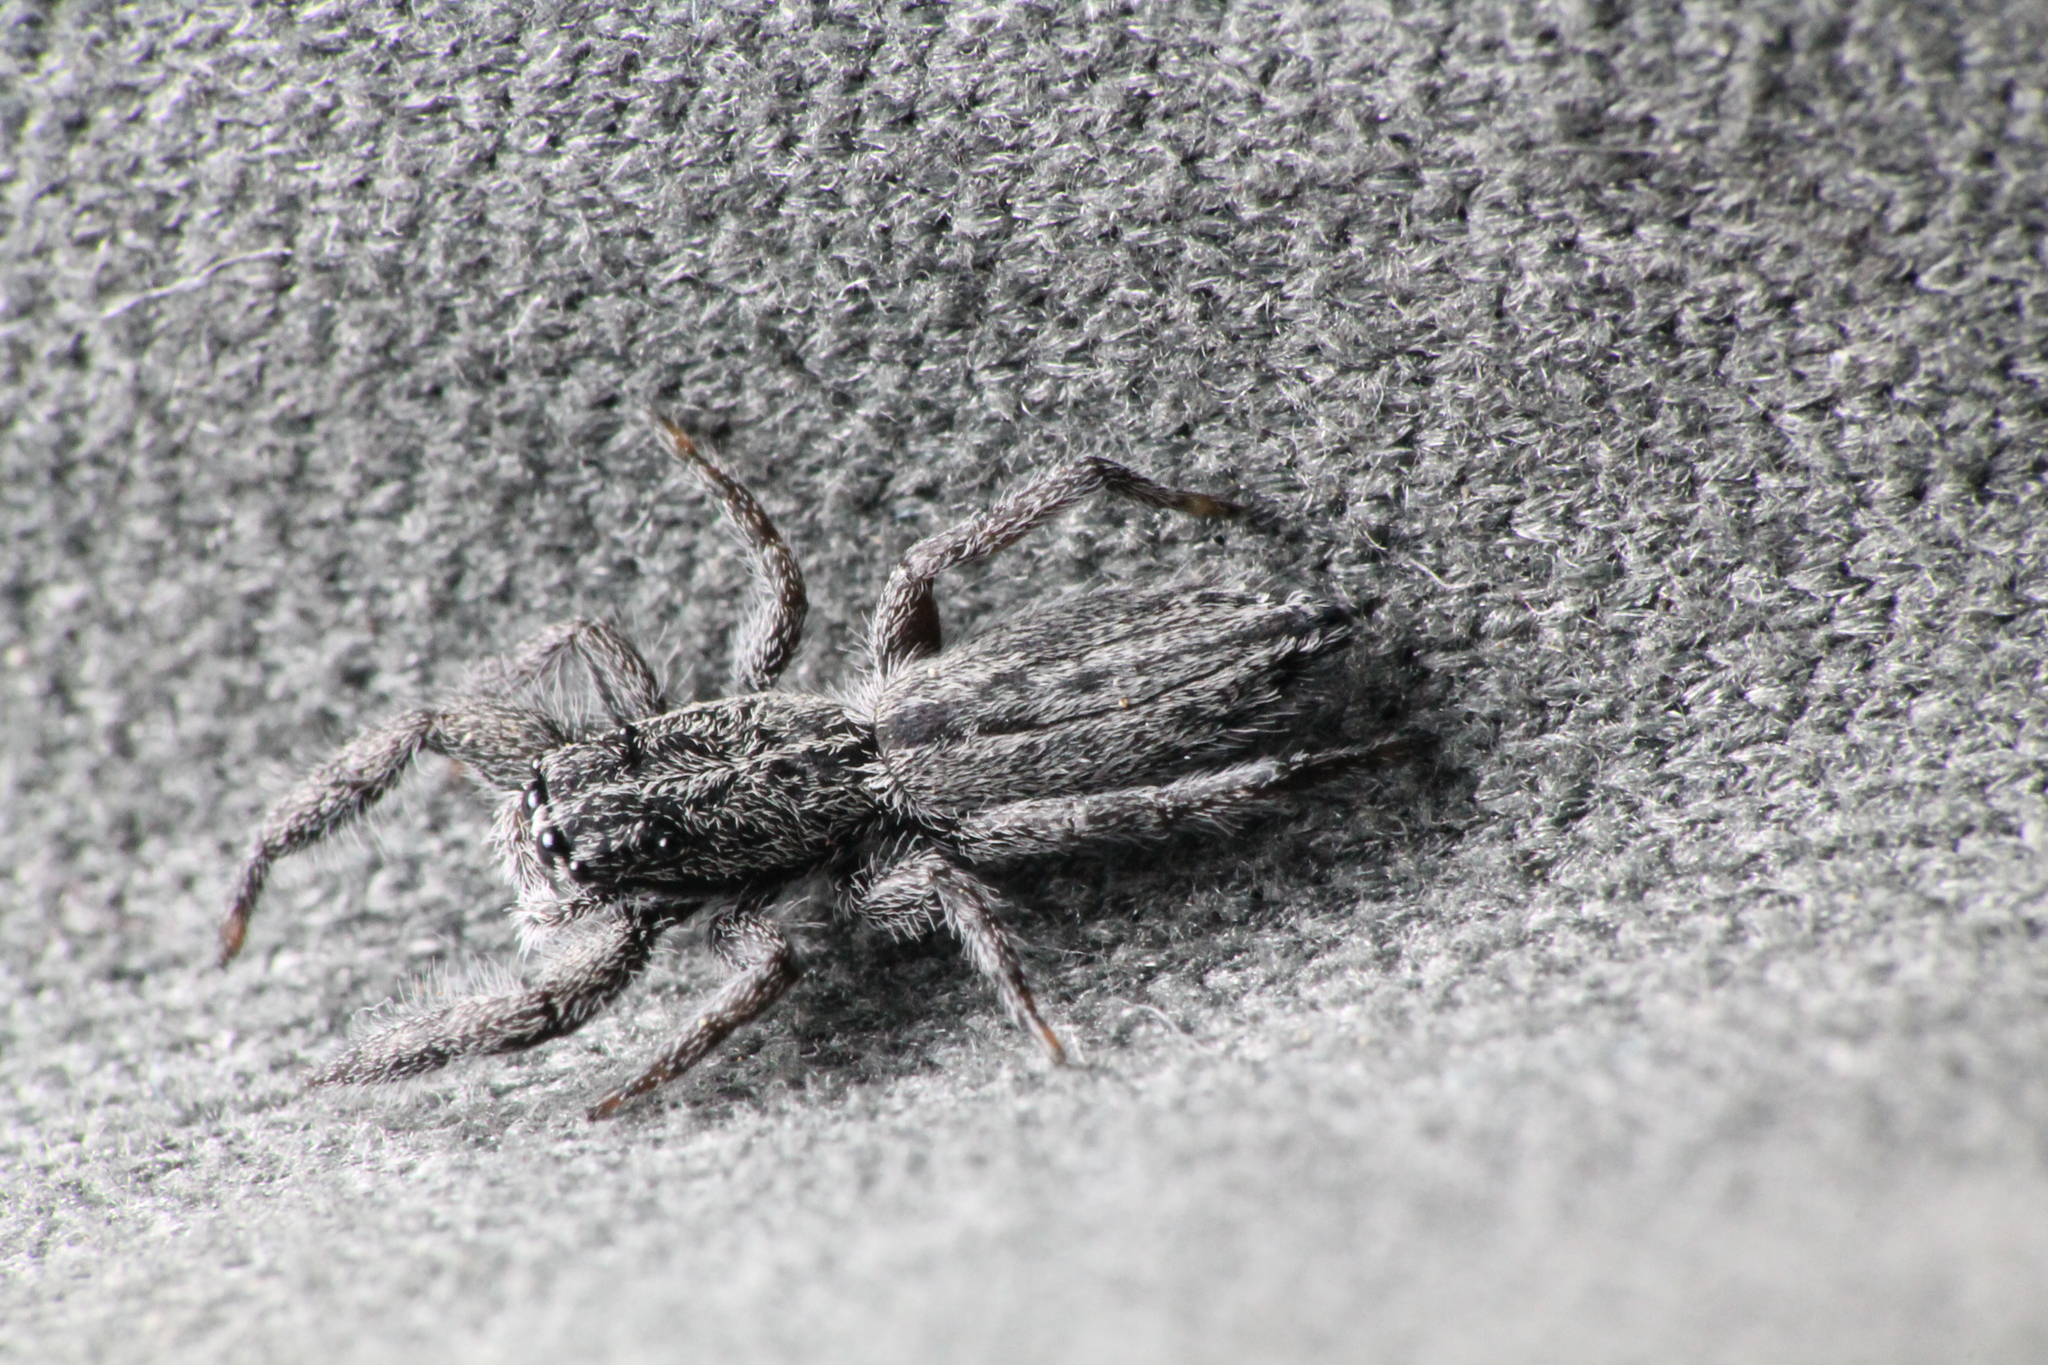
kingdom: Animalia
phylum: Arthropoda
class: Arachnida
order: Araneae
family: Salticidae
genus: Holoplatys
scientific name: Holoplatys apressus
